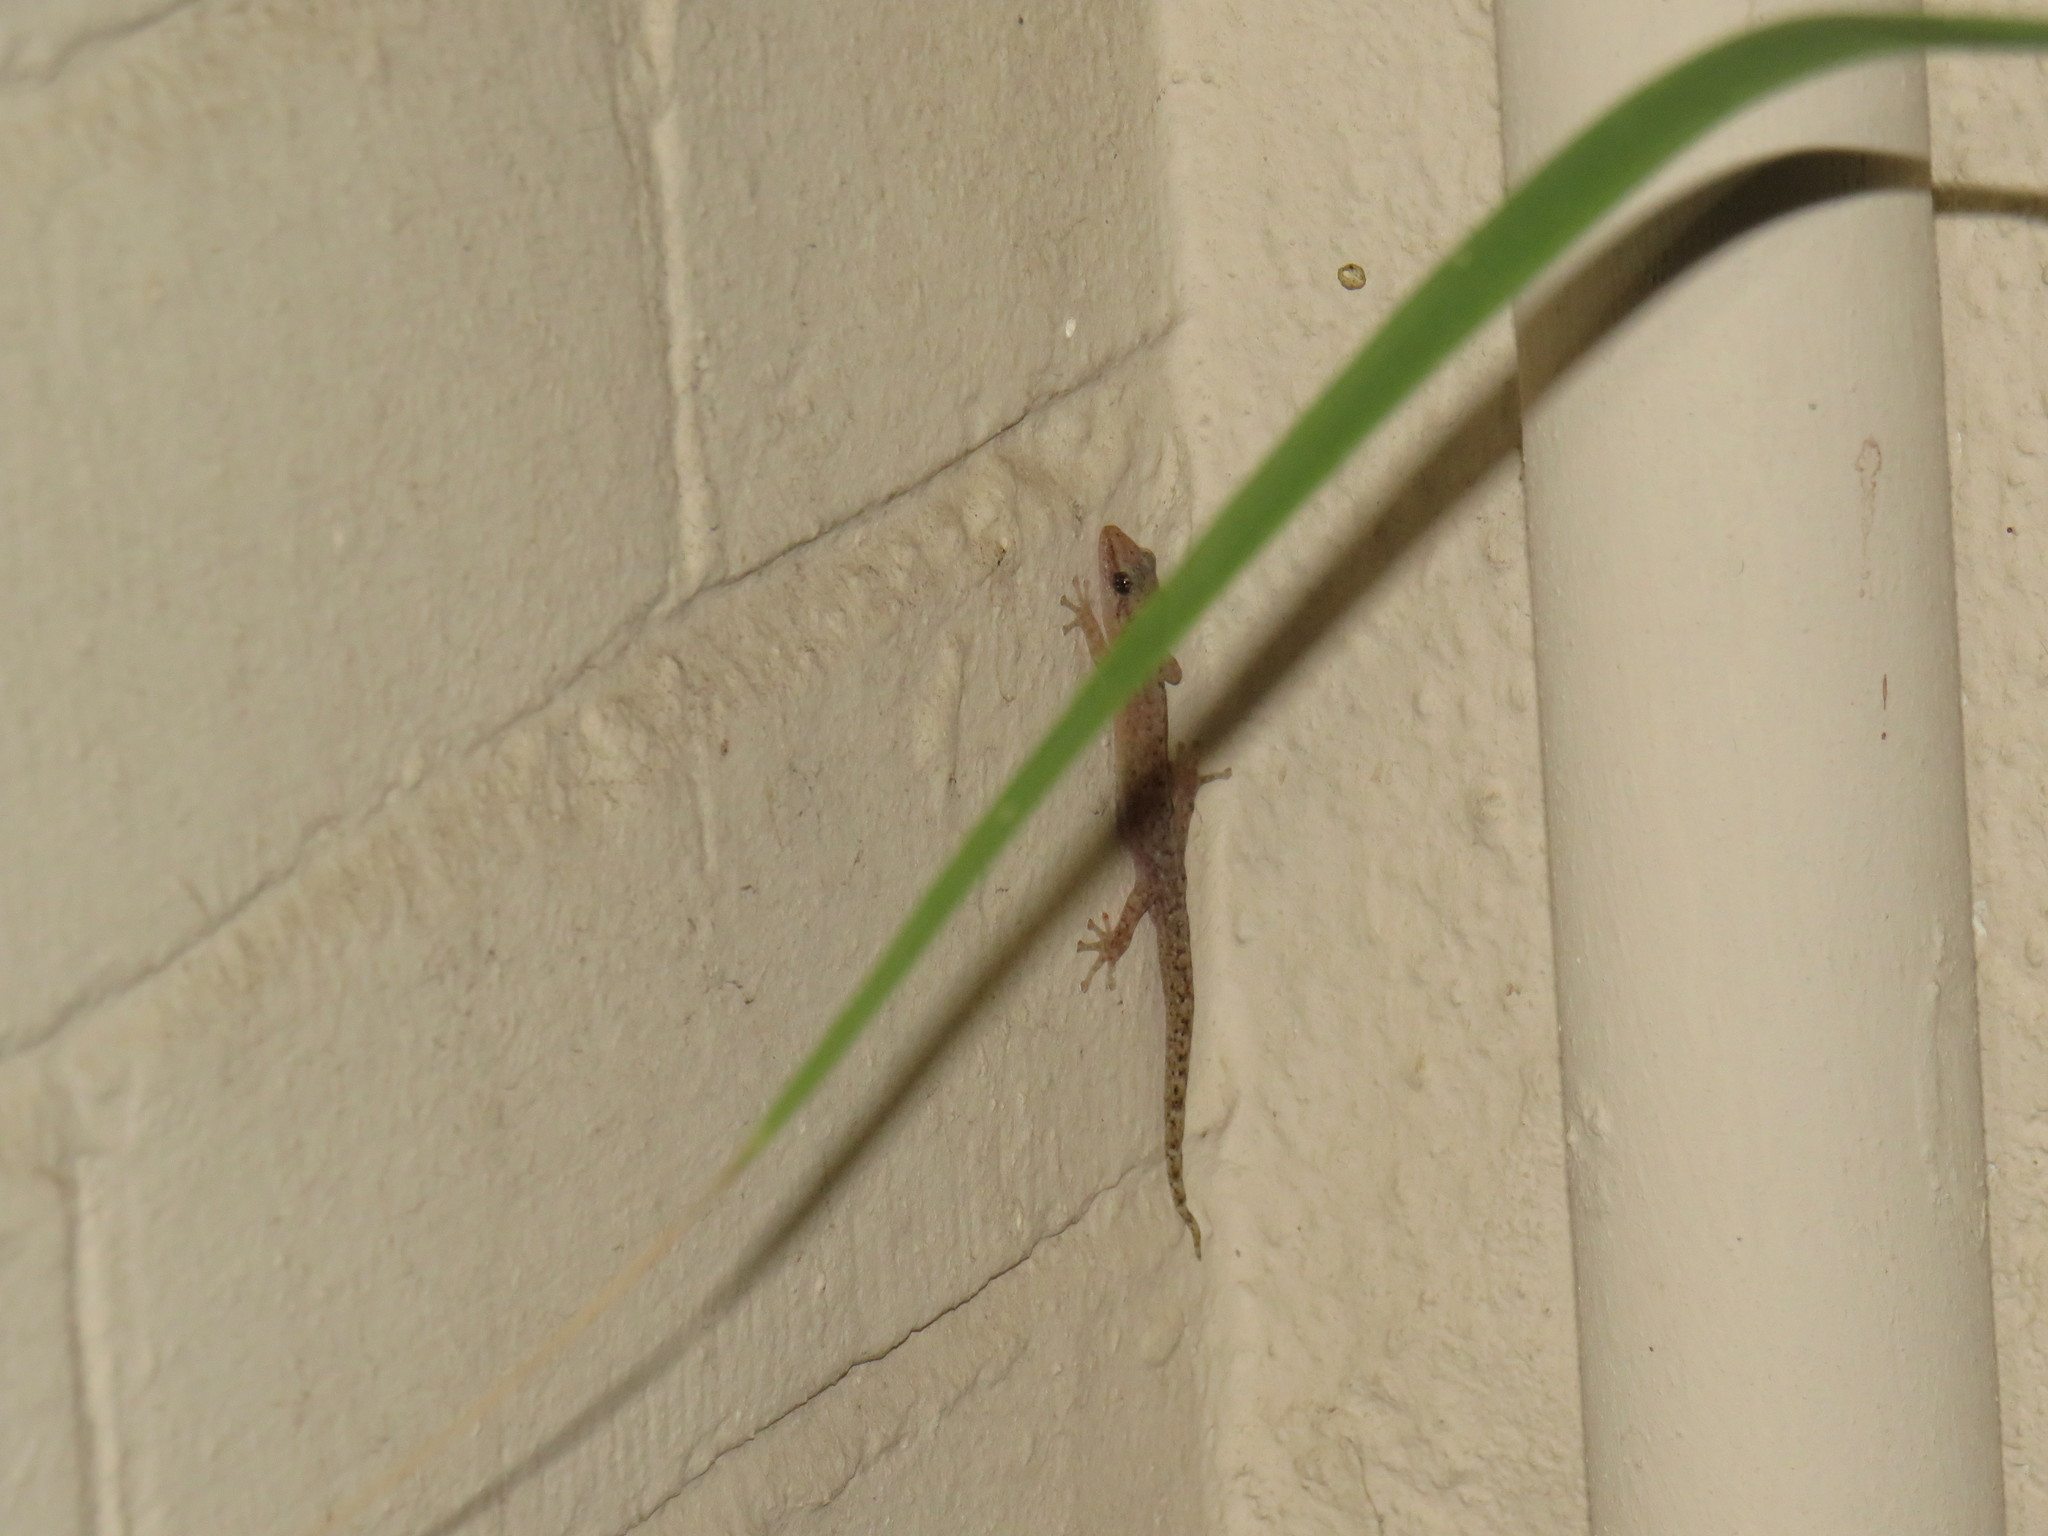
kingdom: Animalia
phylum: Chordata
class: Squamata
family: Gekkonidae
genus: Afrogecko
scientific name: Afrogecko porphyreus
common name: Marbled leaf-toed gecko
